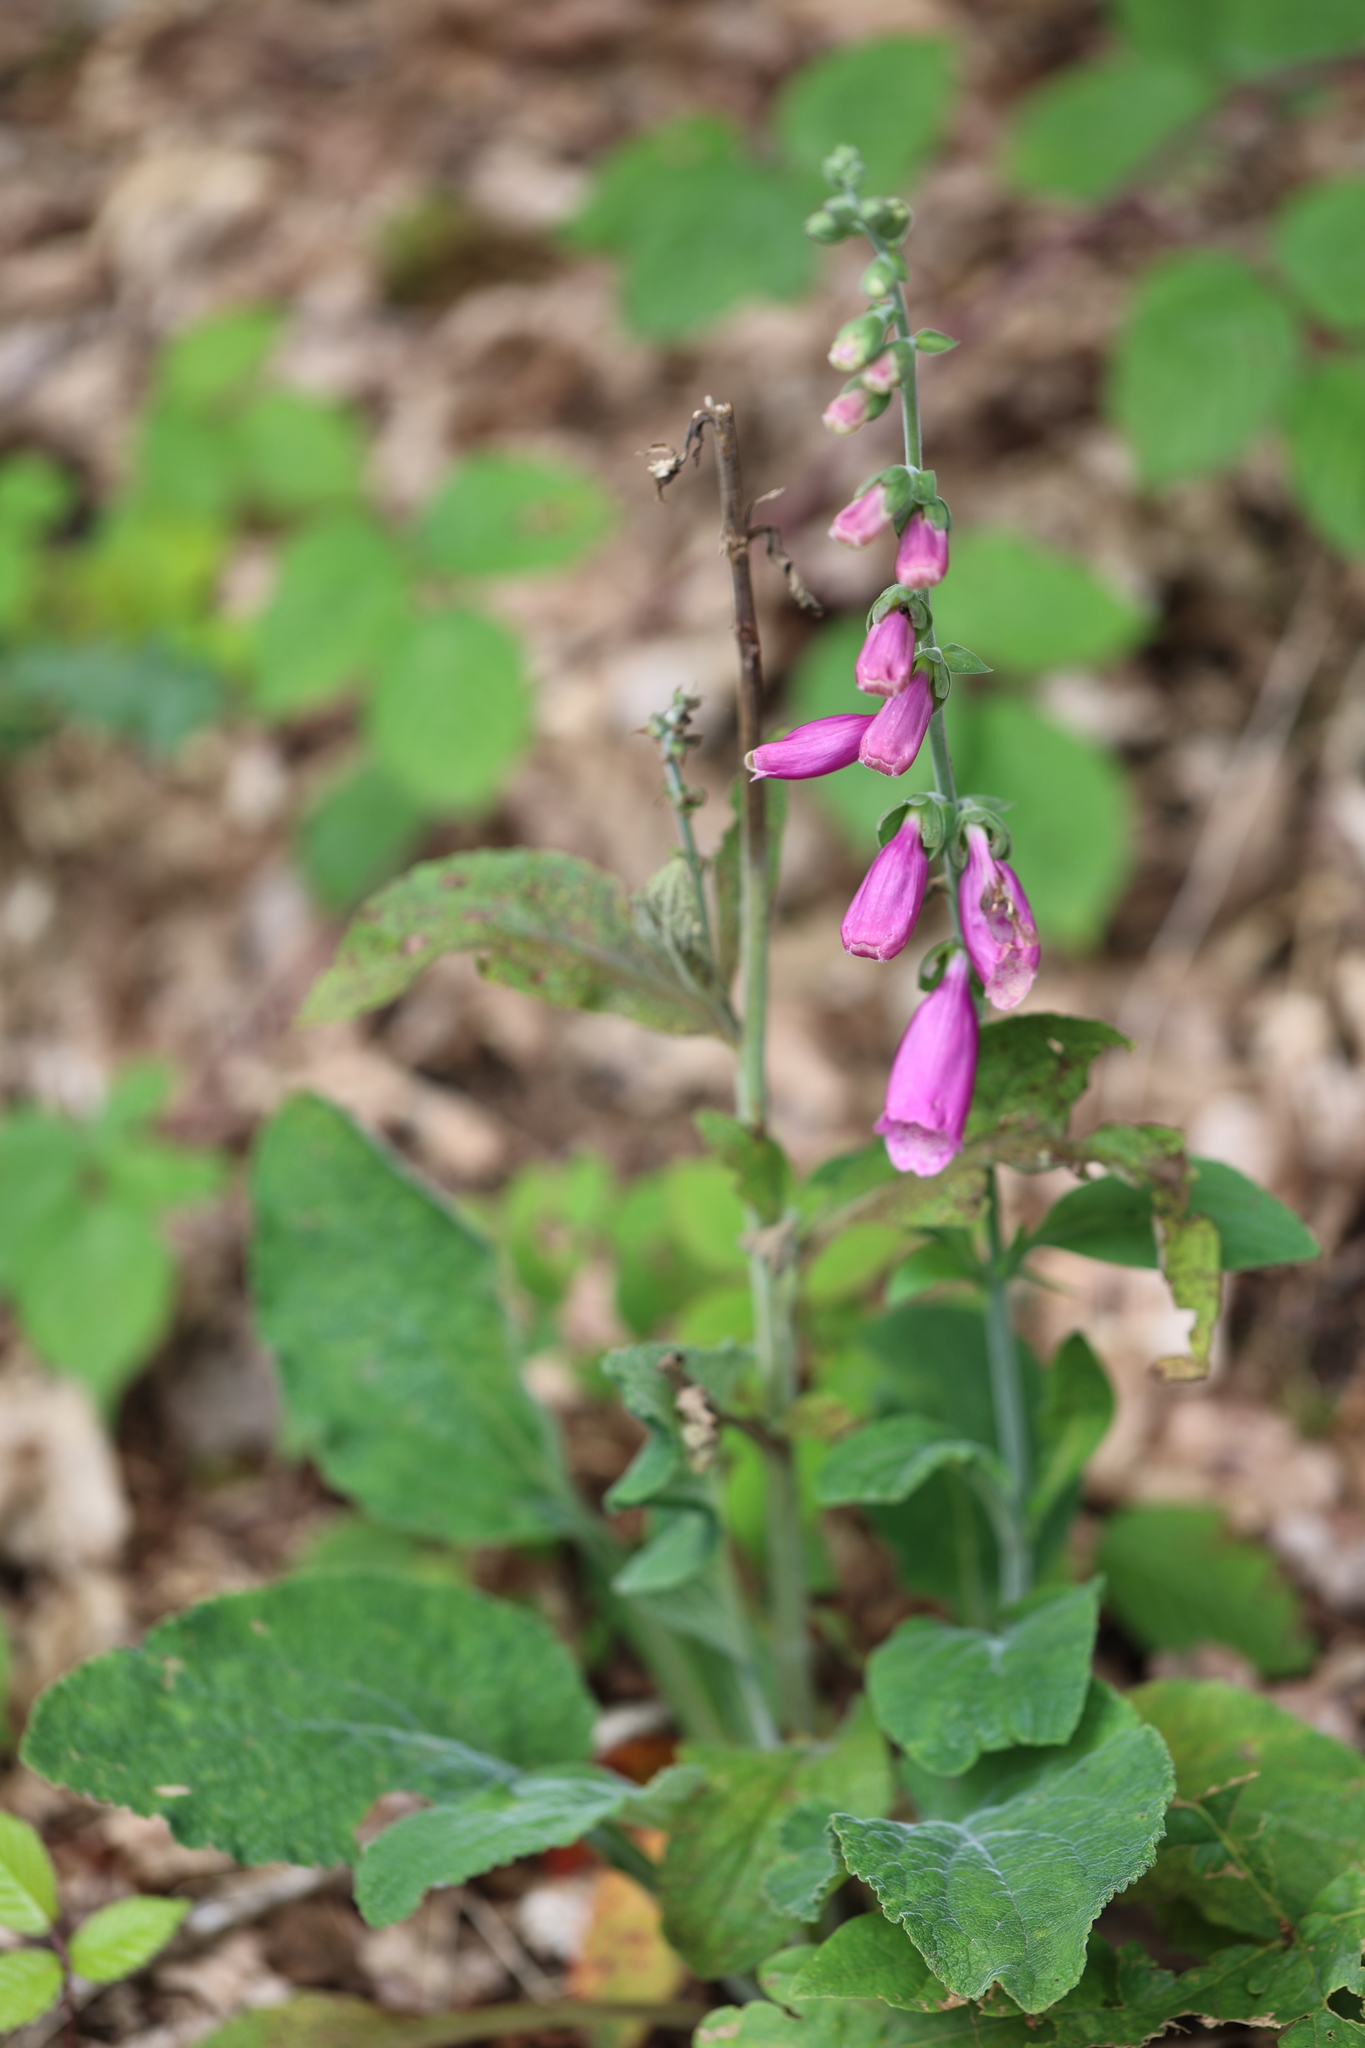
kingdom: Plantae
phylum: Tracheophyta
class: Magnoliopsida
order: Lamiales
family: Plantaginaceae
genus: Digitalis
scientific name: Digitalis purpurea
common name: Foxglove
